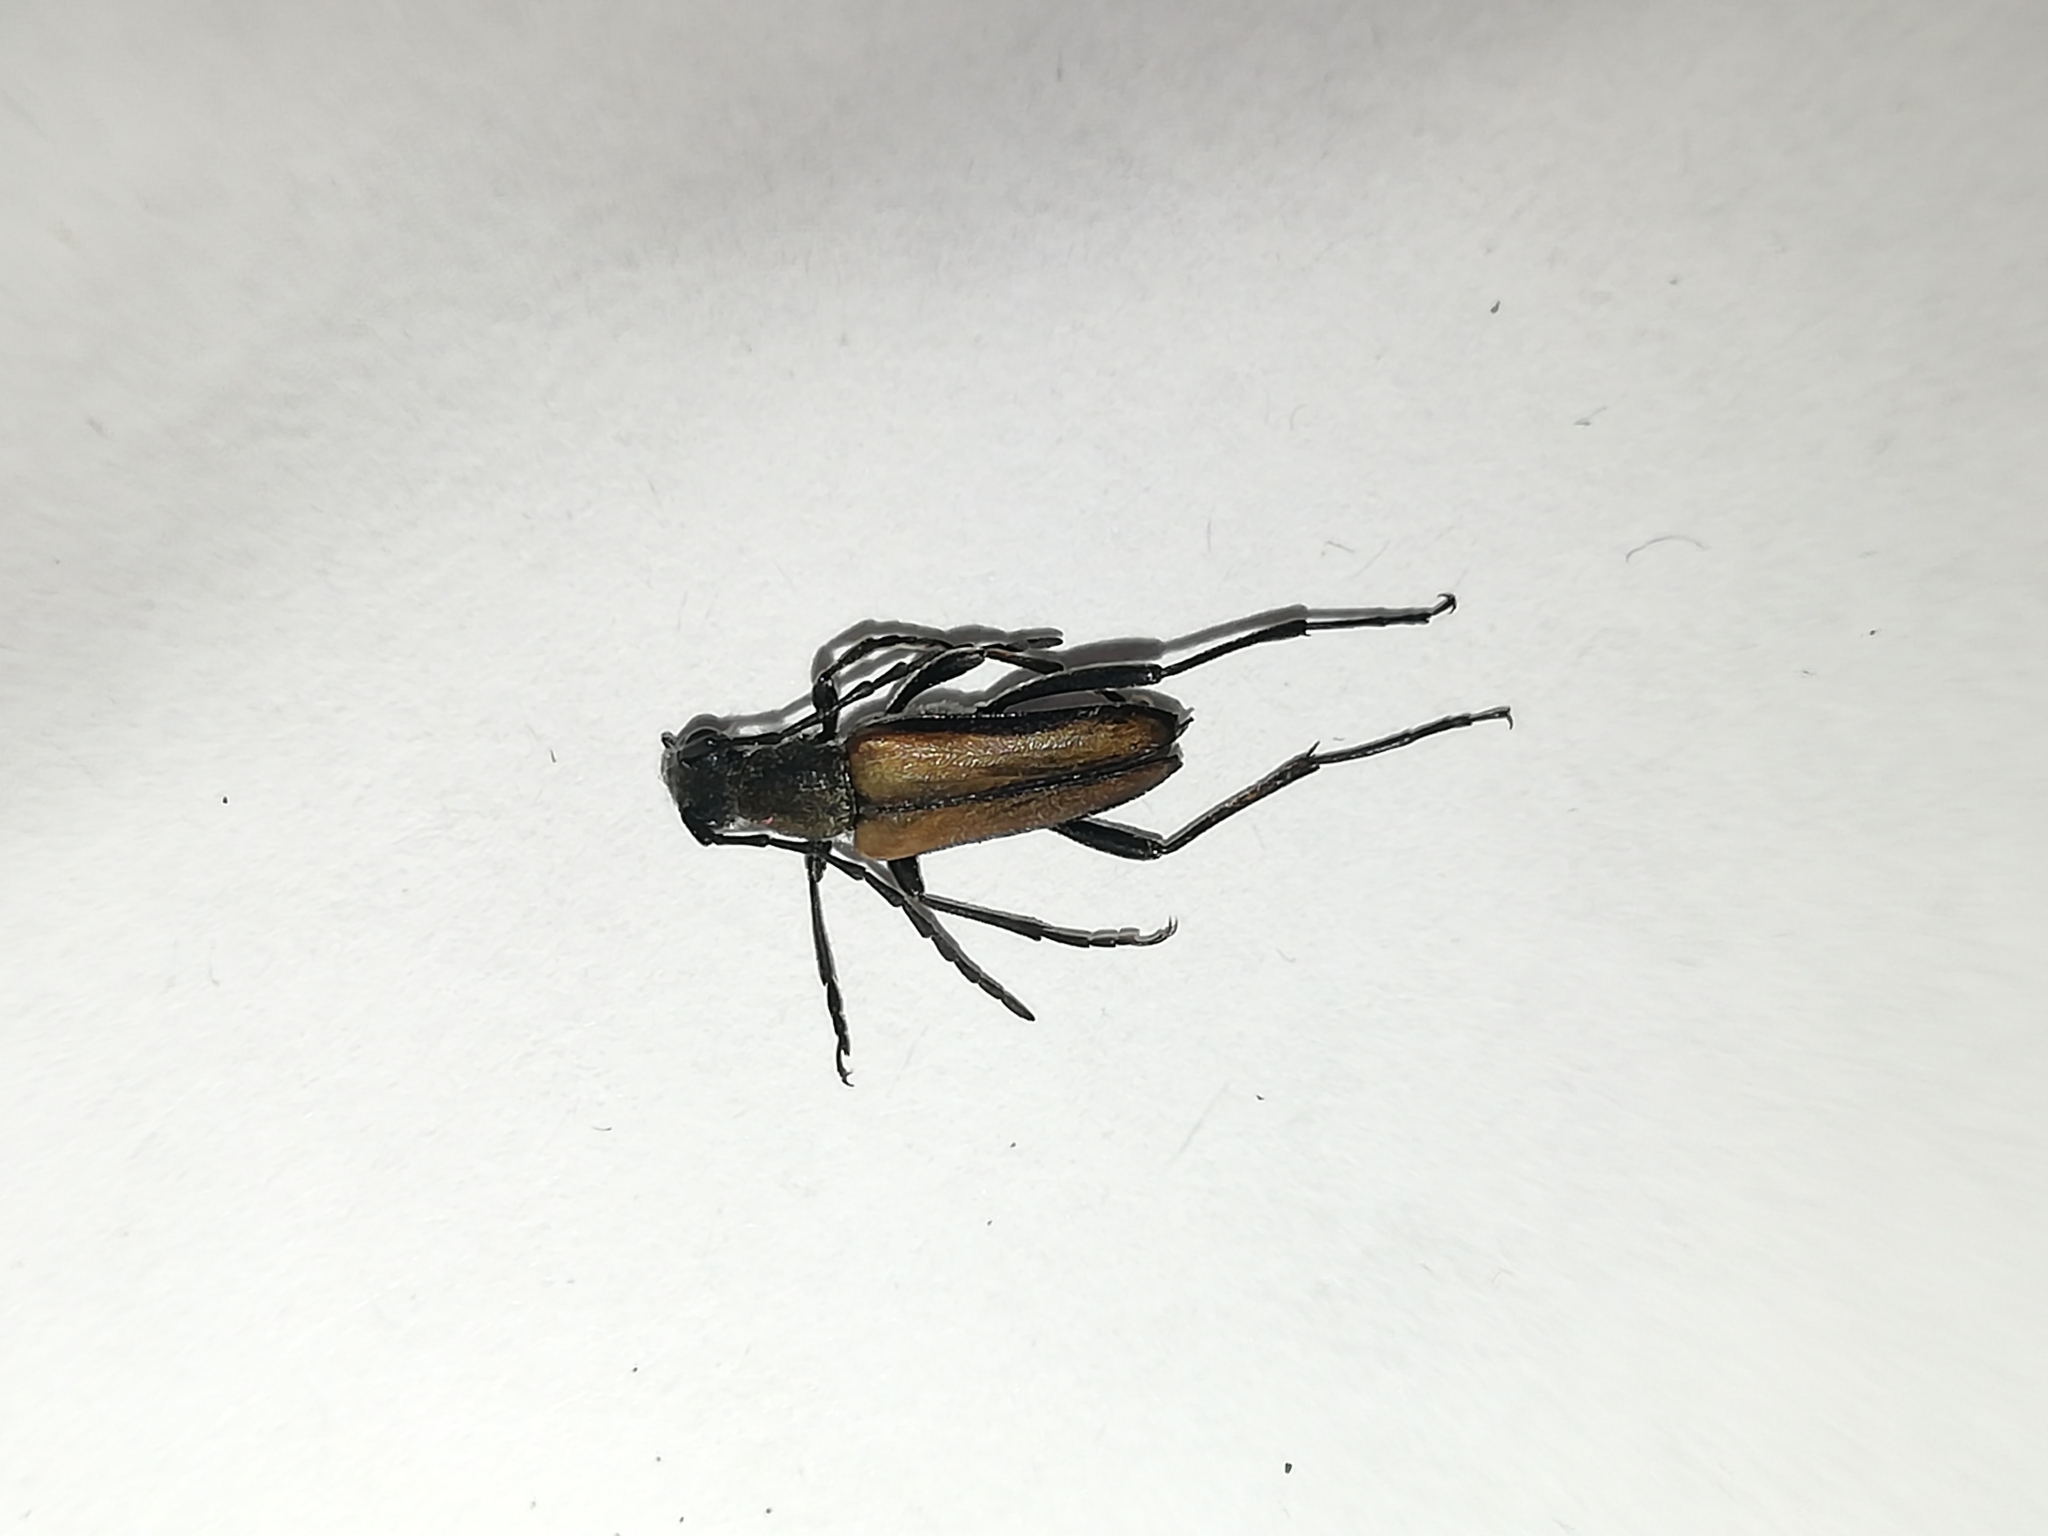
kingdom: Animalia
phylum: Arthropoda
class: Insecta
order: Coleoptera
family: Cerambycidae
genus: Anastrangalia
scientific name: Anastrangalia reyi
